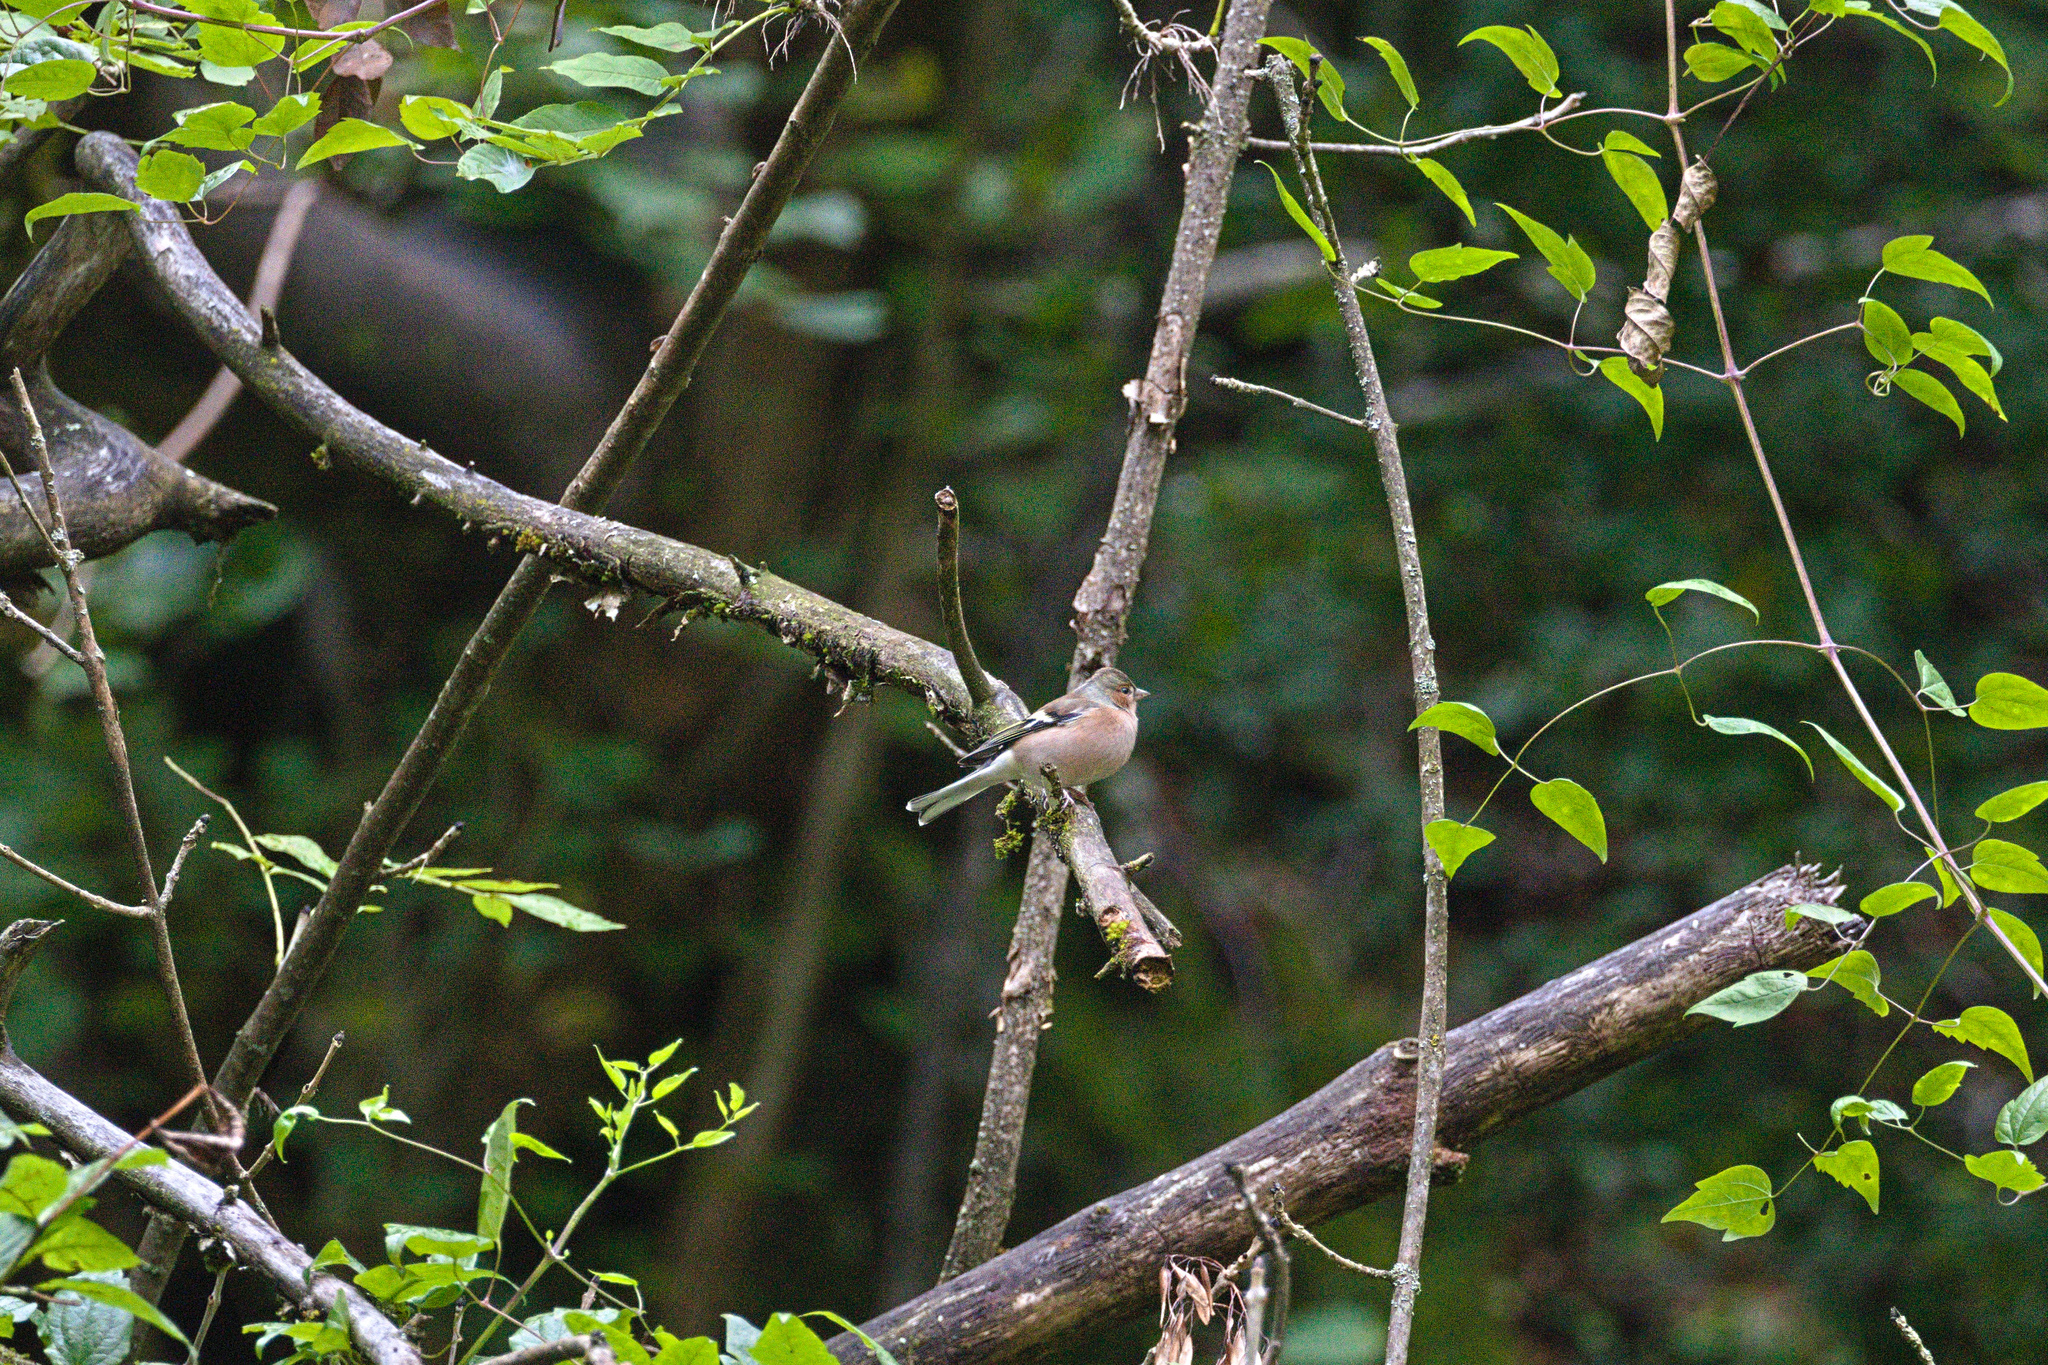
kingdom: Animalia
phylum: Chordata
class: Aves
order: Passeriformes
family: Fringillidae
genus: Fringilla
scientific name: Fringilla coelebs
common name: Common chaffinch
